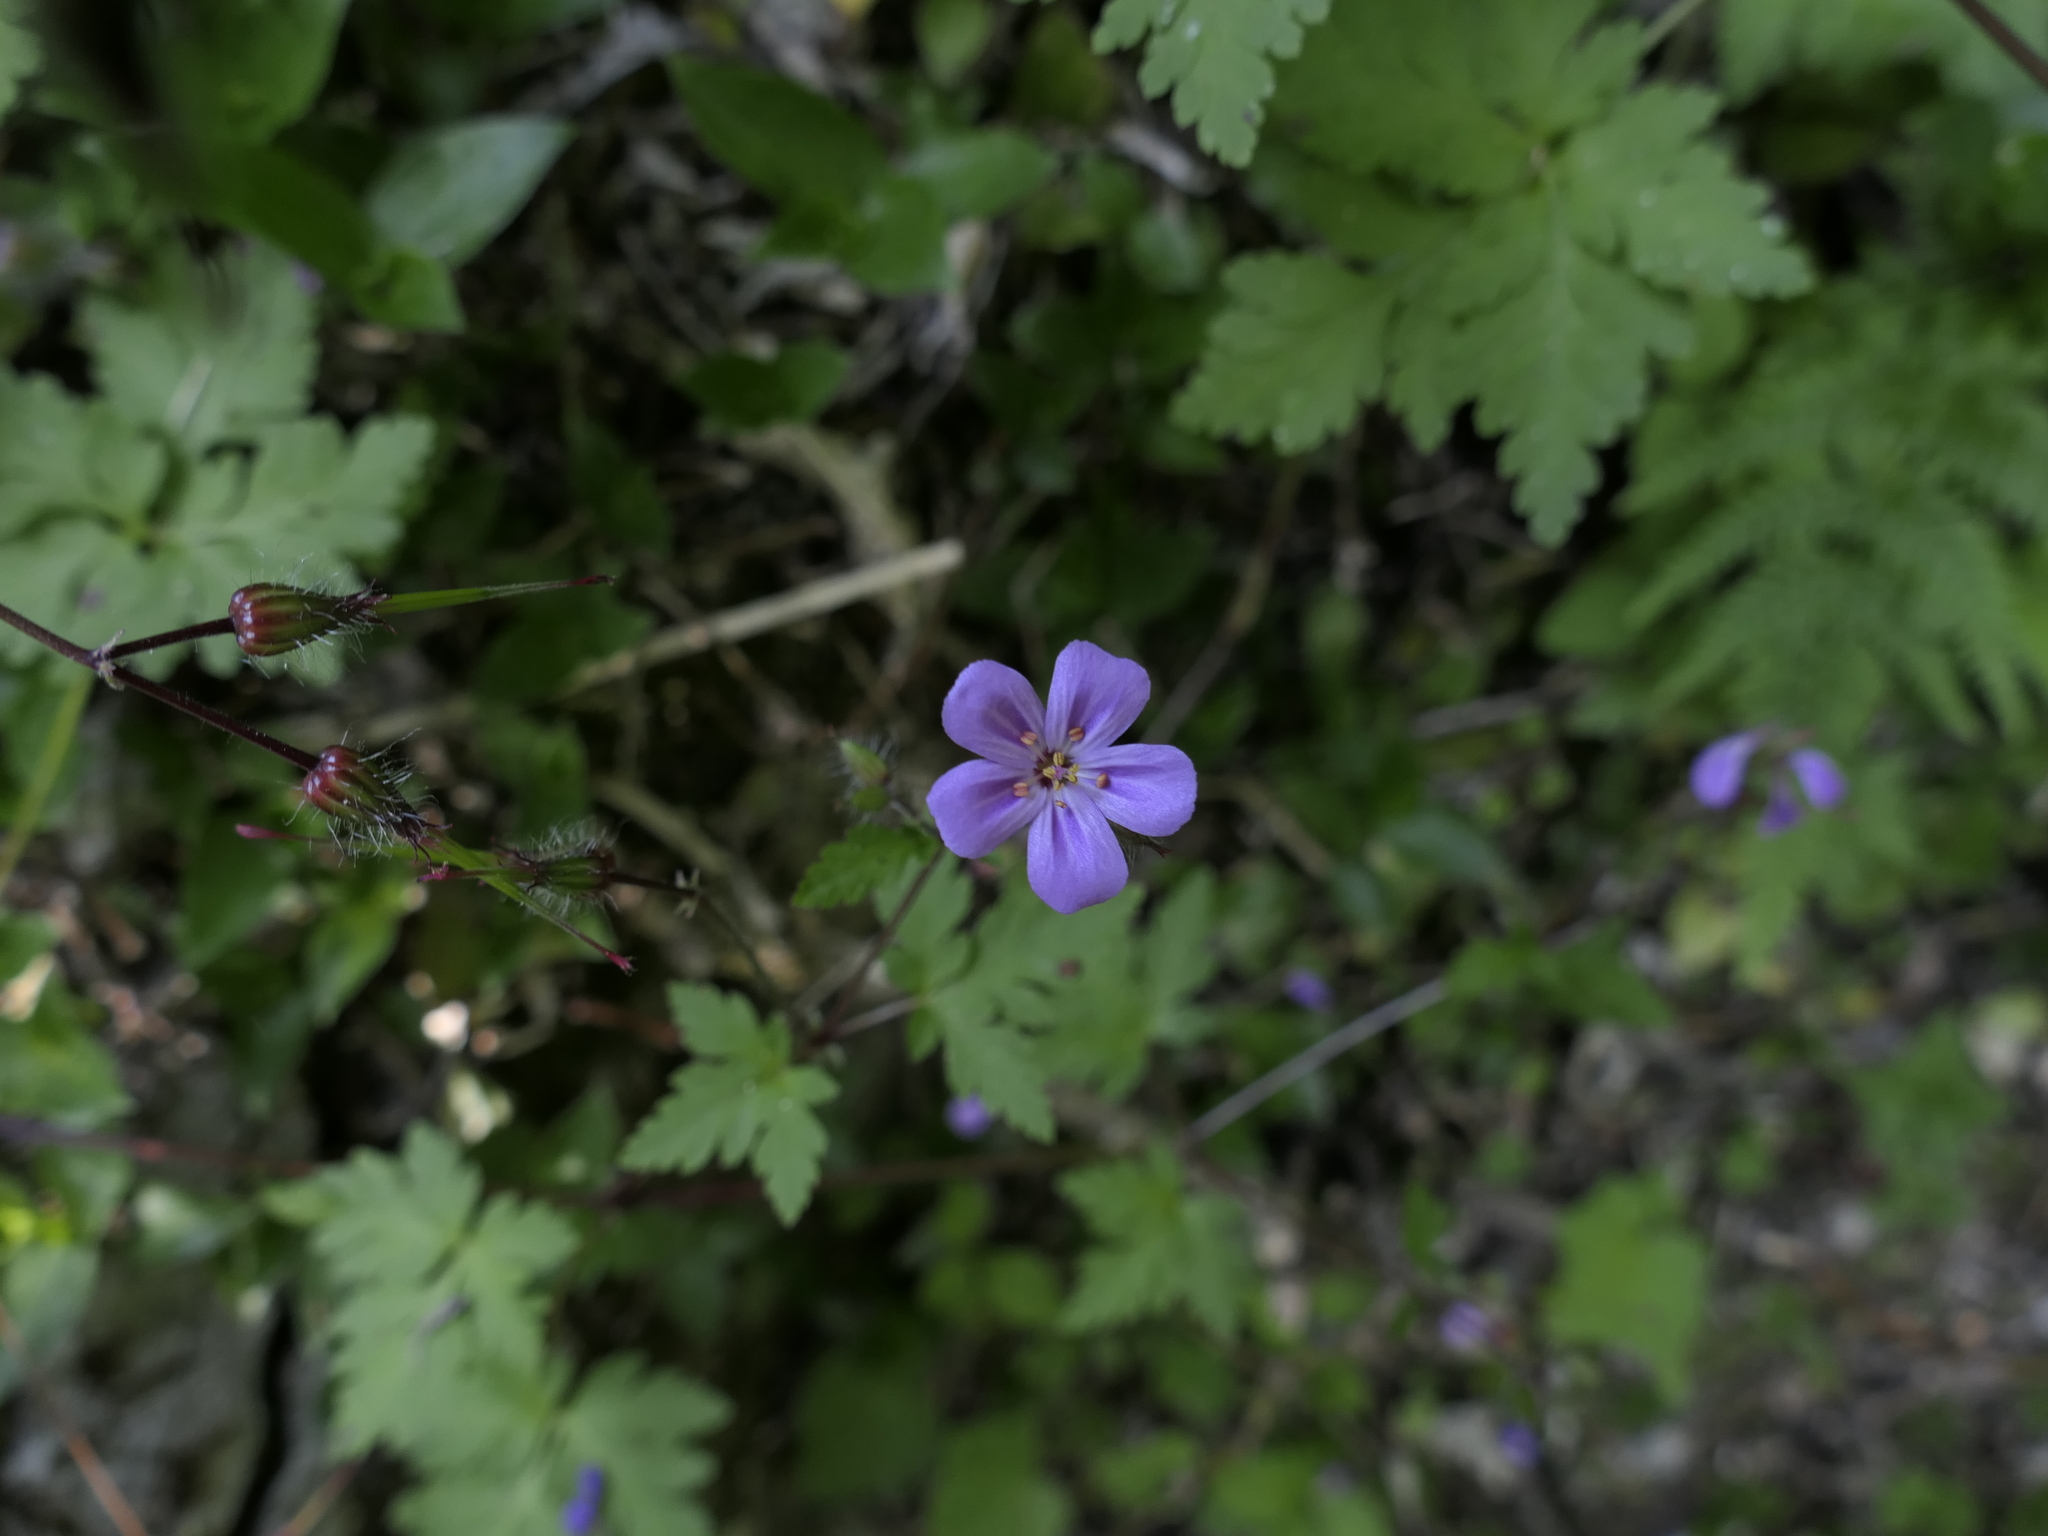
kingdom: Plantae
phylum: Tracheophyta
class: Magnoliopsida
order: Geraniales
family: Geraniaceae
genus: Geranium
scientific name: Geranium robertianum
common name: Herb-robert
